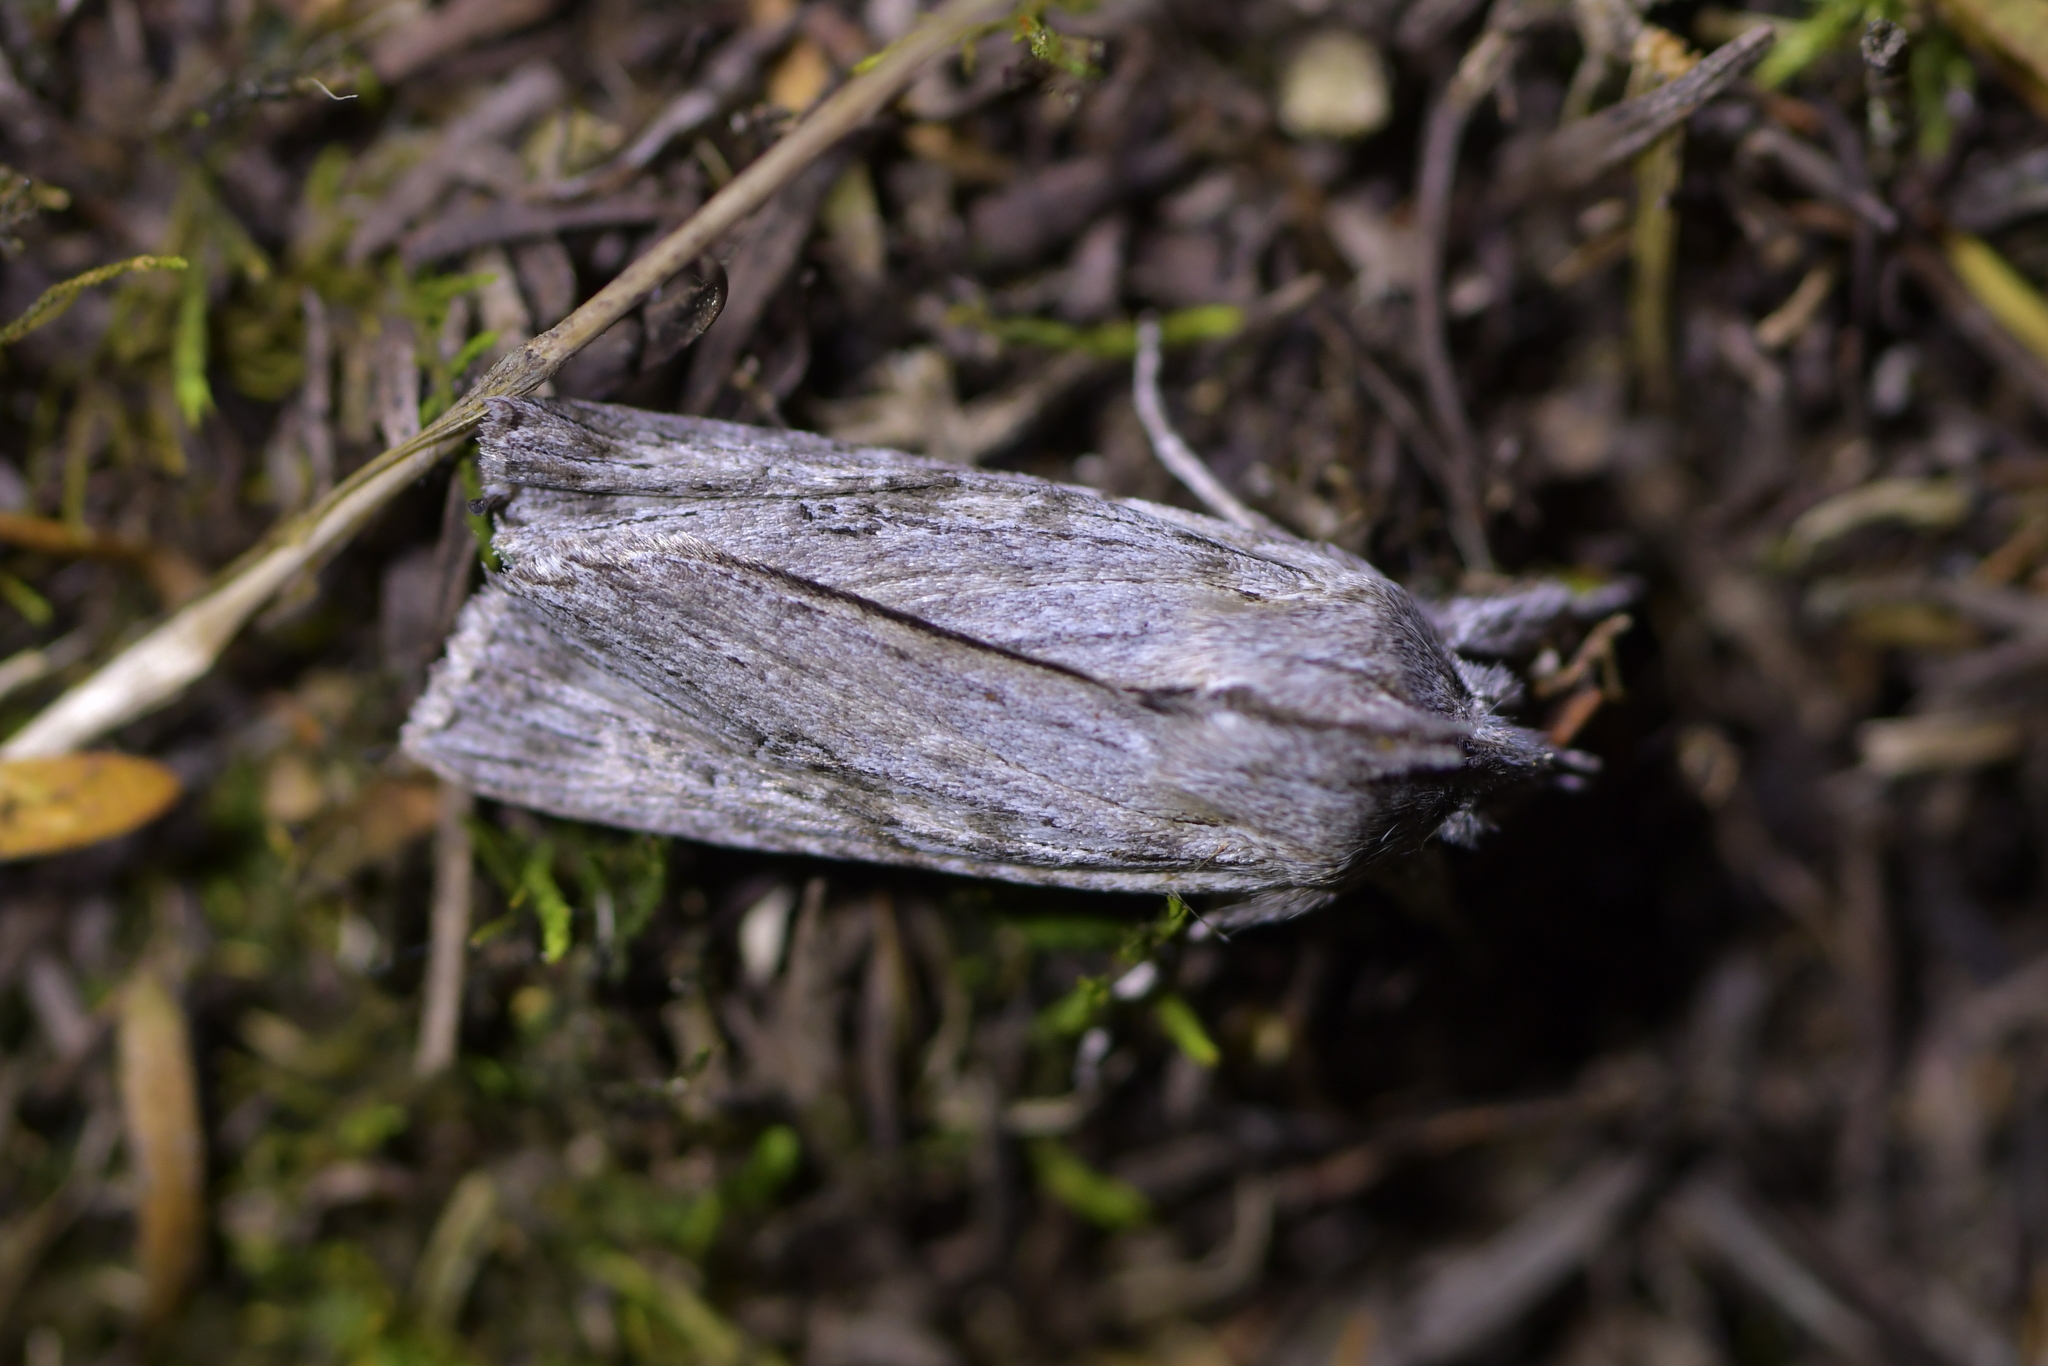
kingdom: Animalia
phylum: Arthropoda
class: Insecta
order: Lepidoptera
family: Noctuidae
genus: Physetica
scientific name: Physetica phricias
